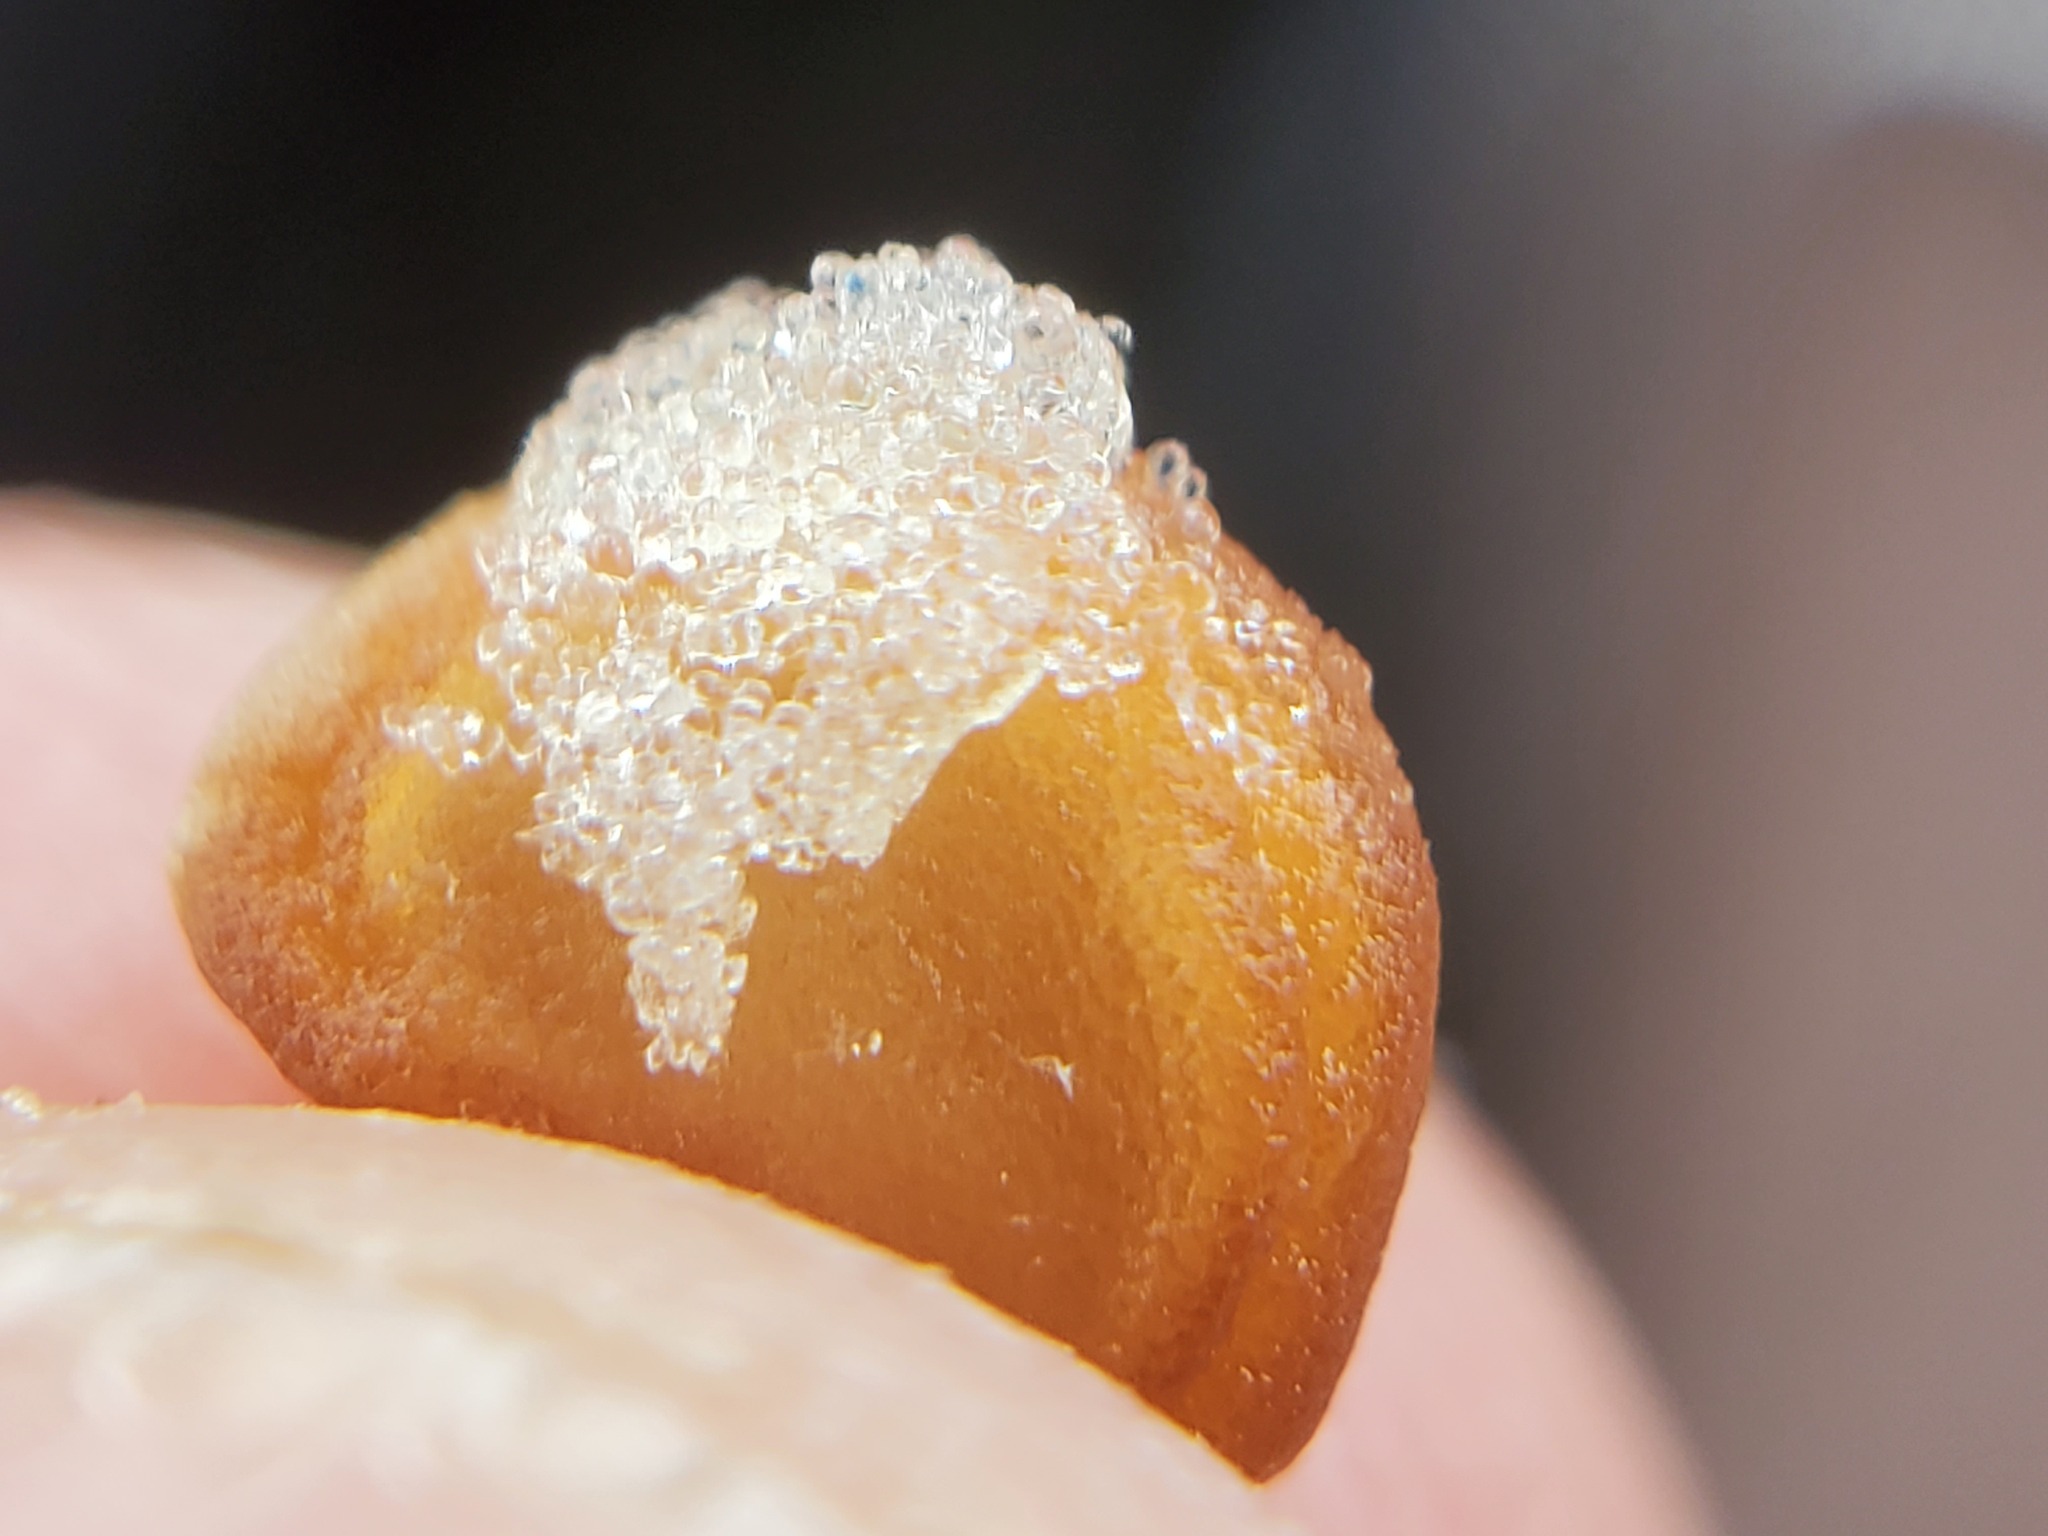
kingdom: Plantae
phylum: Tracheophyta
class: Magnoliopsida
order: Solanales
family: Solanaceae
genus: Datura
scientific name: Datura wrightii
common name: Sacred thorn-apple
